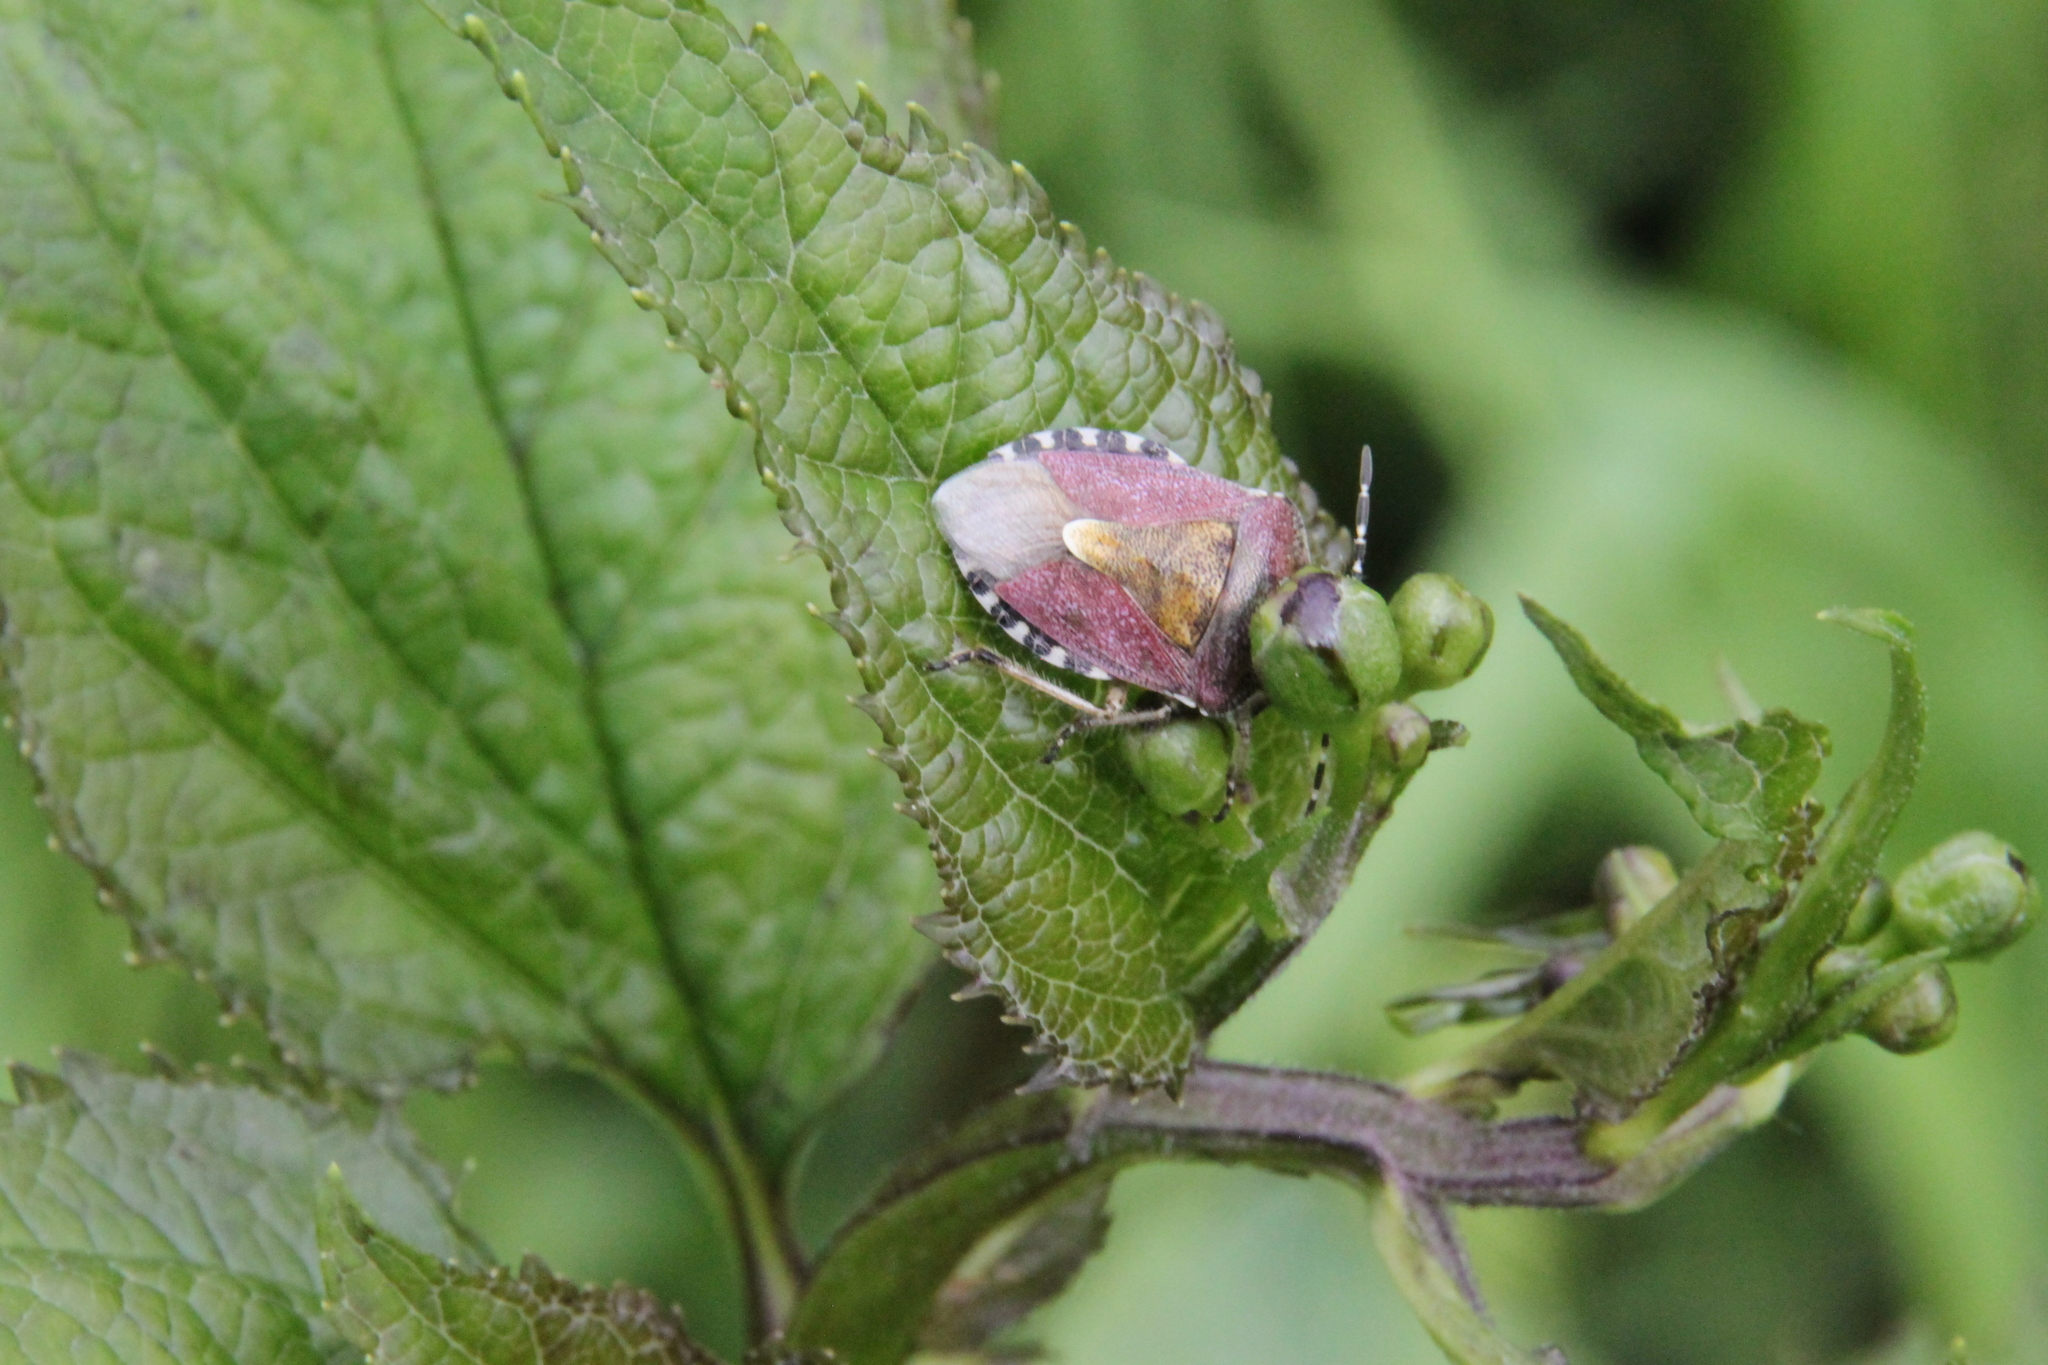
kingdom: Animalia
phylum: Arthropoda
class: Insecta
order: Hemiptera
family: Pentatomidae
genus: Dolycoris
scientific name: Dolycoris baccarum
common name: Sloe bug
